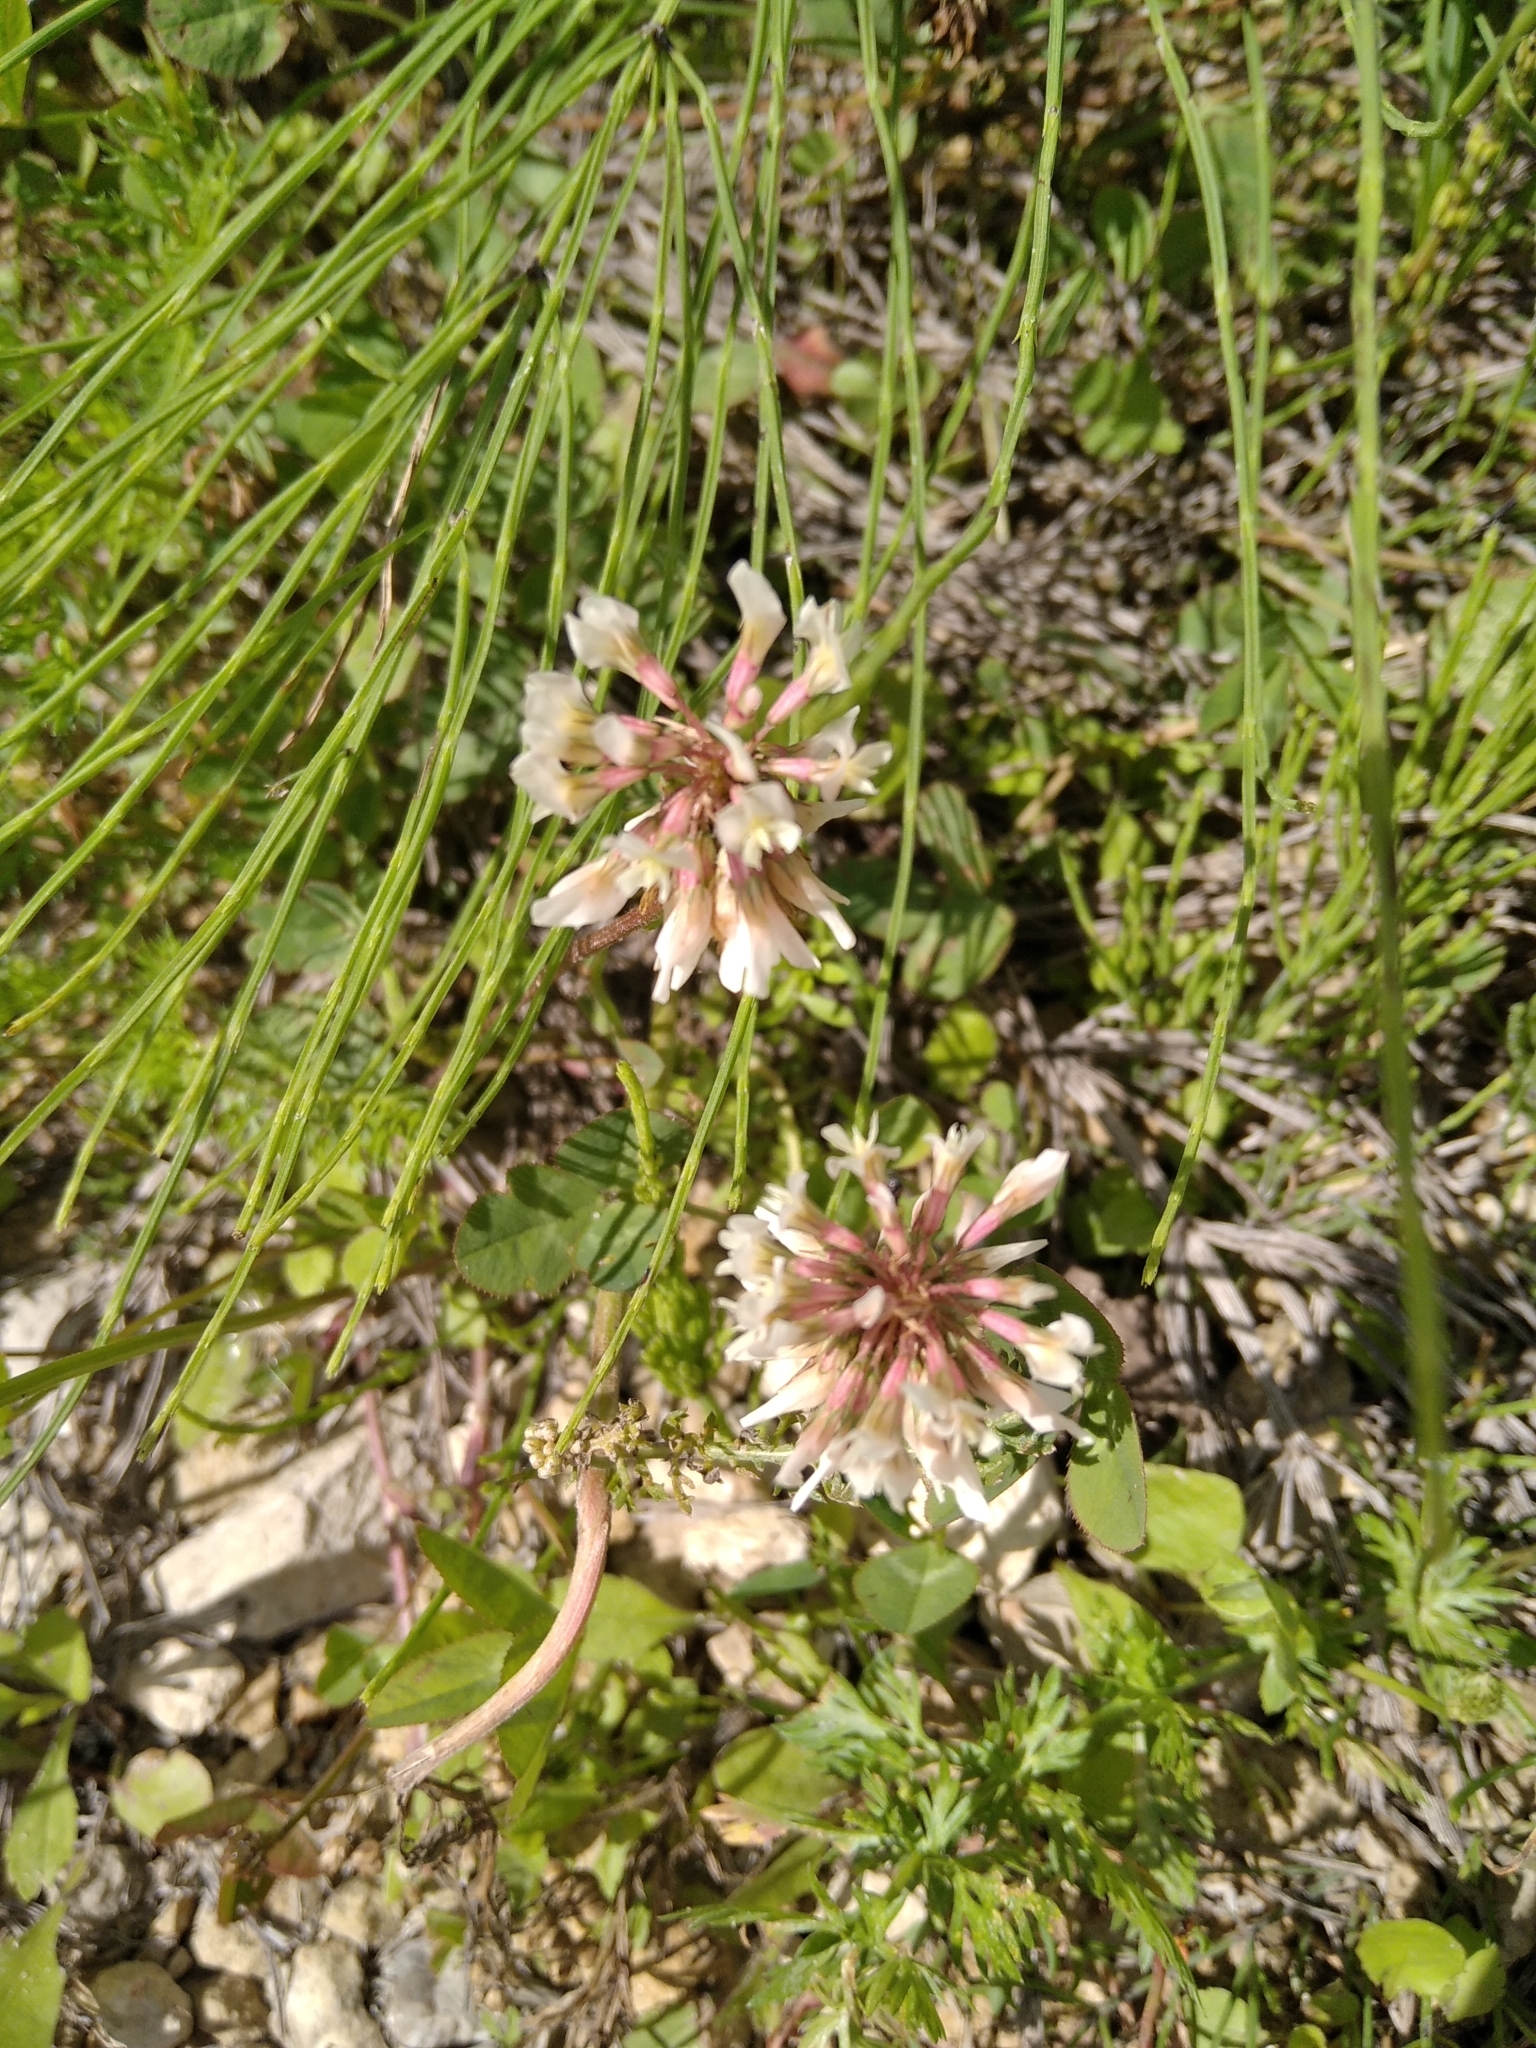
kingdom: Plantae
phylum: Tracheophyta
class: Magnoliopsida
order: Fabales
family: Fabaceae
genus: Trifolium
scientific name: Trifolium repens
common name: White clover
